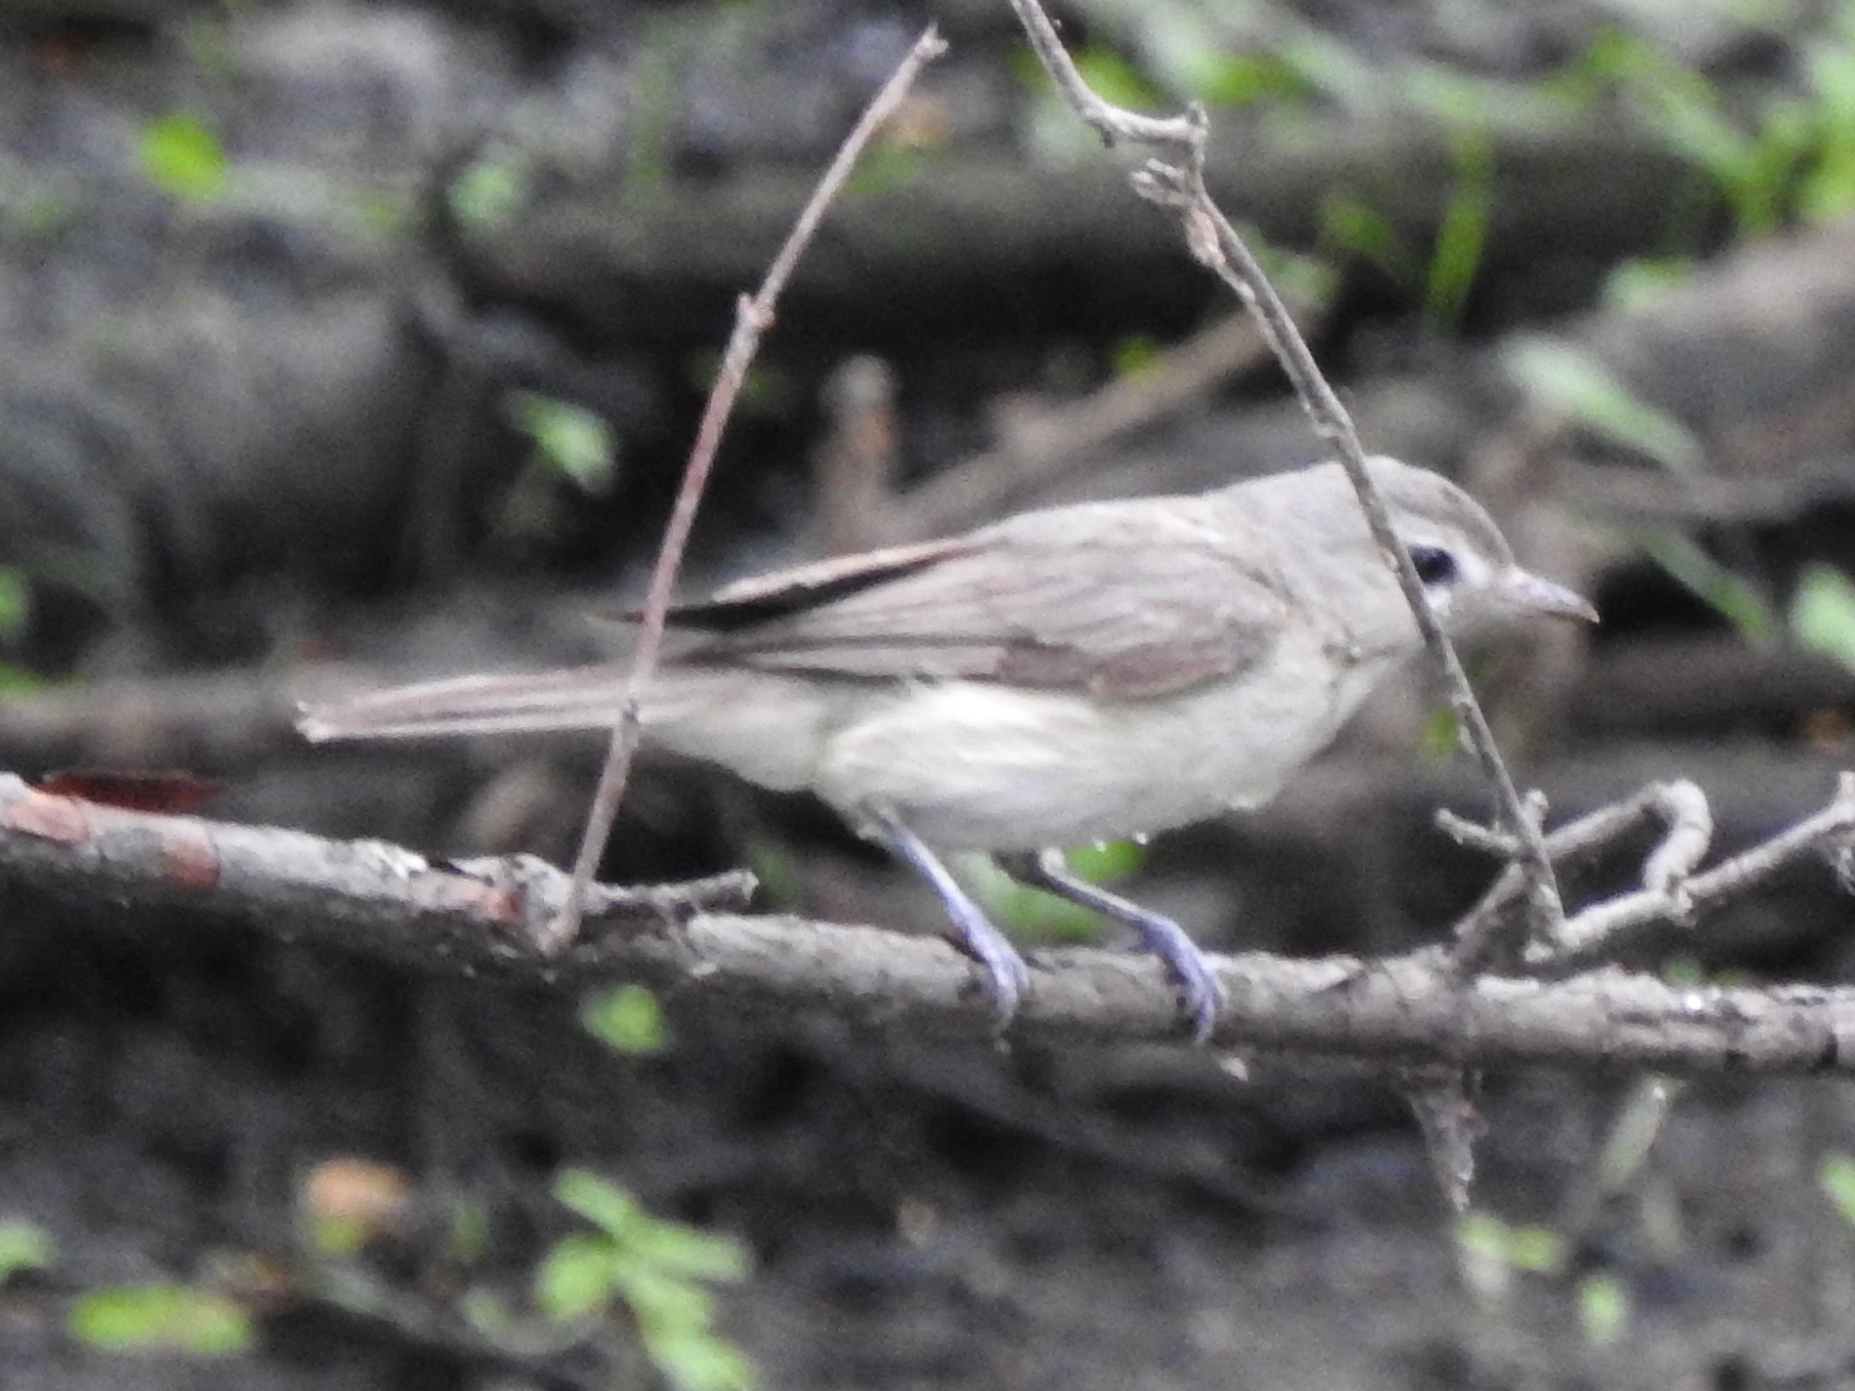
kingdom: Animalia
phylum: Chordata
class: Aves
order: Passeriformes
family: Vireonidae
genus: Vireo
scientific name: Vireo gilvus
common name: Warbling vireo
